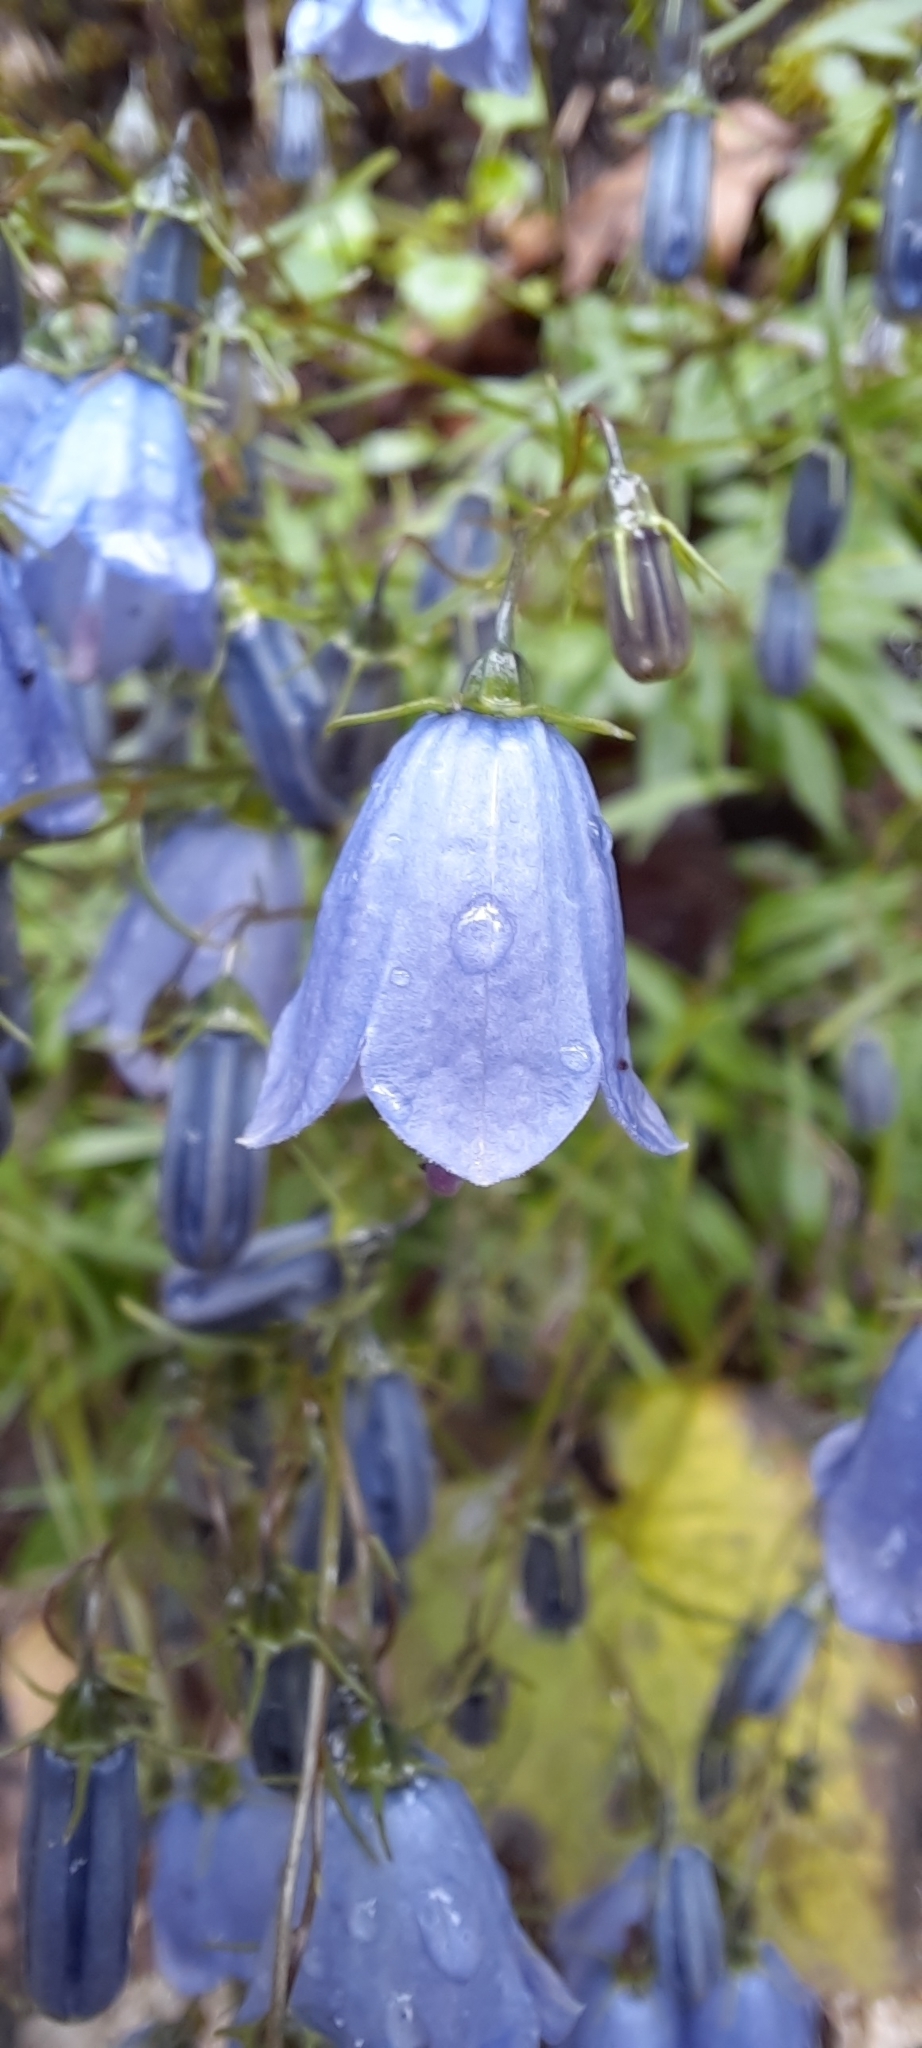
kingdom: Plantae
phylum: Tracheophyta
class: Magnoliopsida
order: Asterales
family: Campanulaceae
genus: Campanula
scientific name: Campanula cochleariifolia
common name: Fairies'-thimbles
